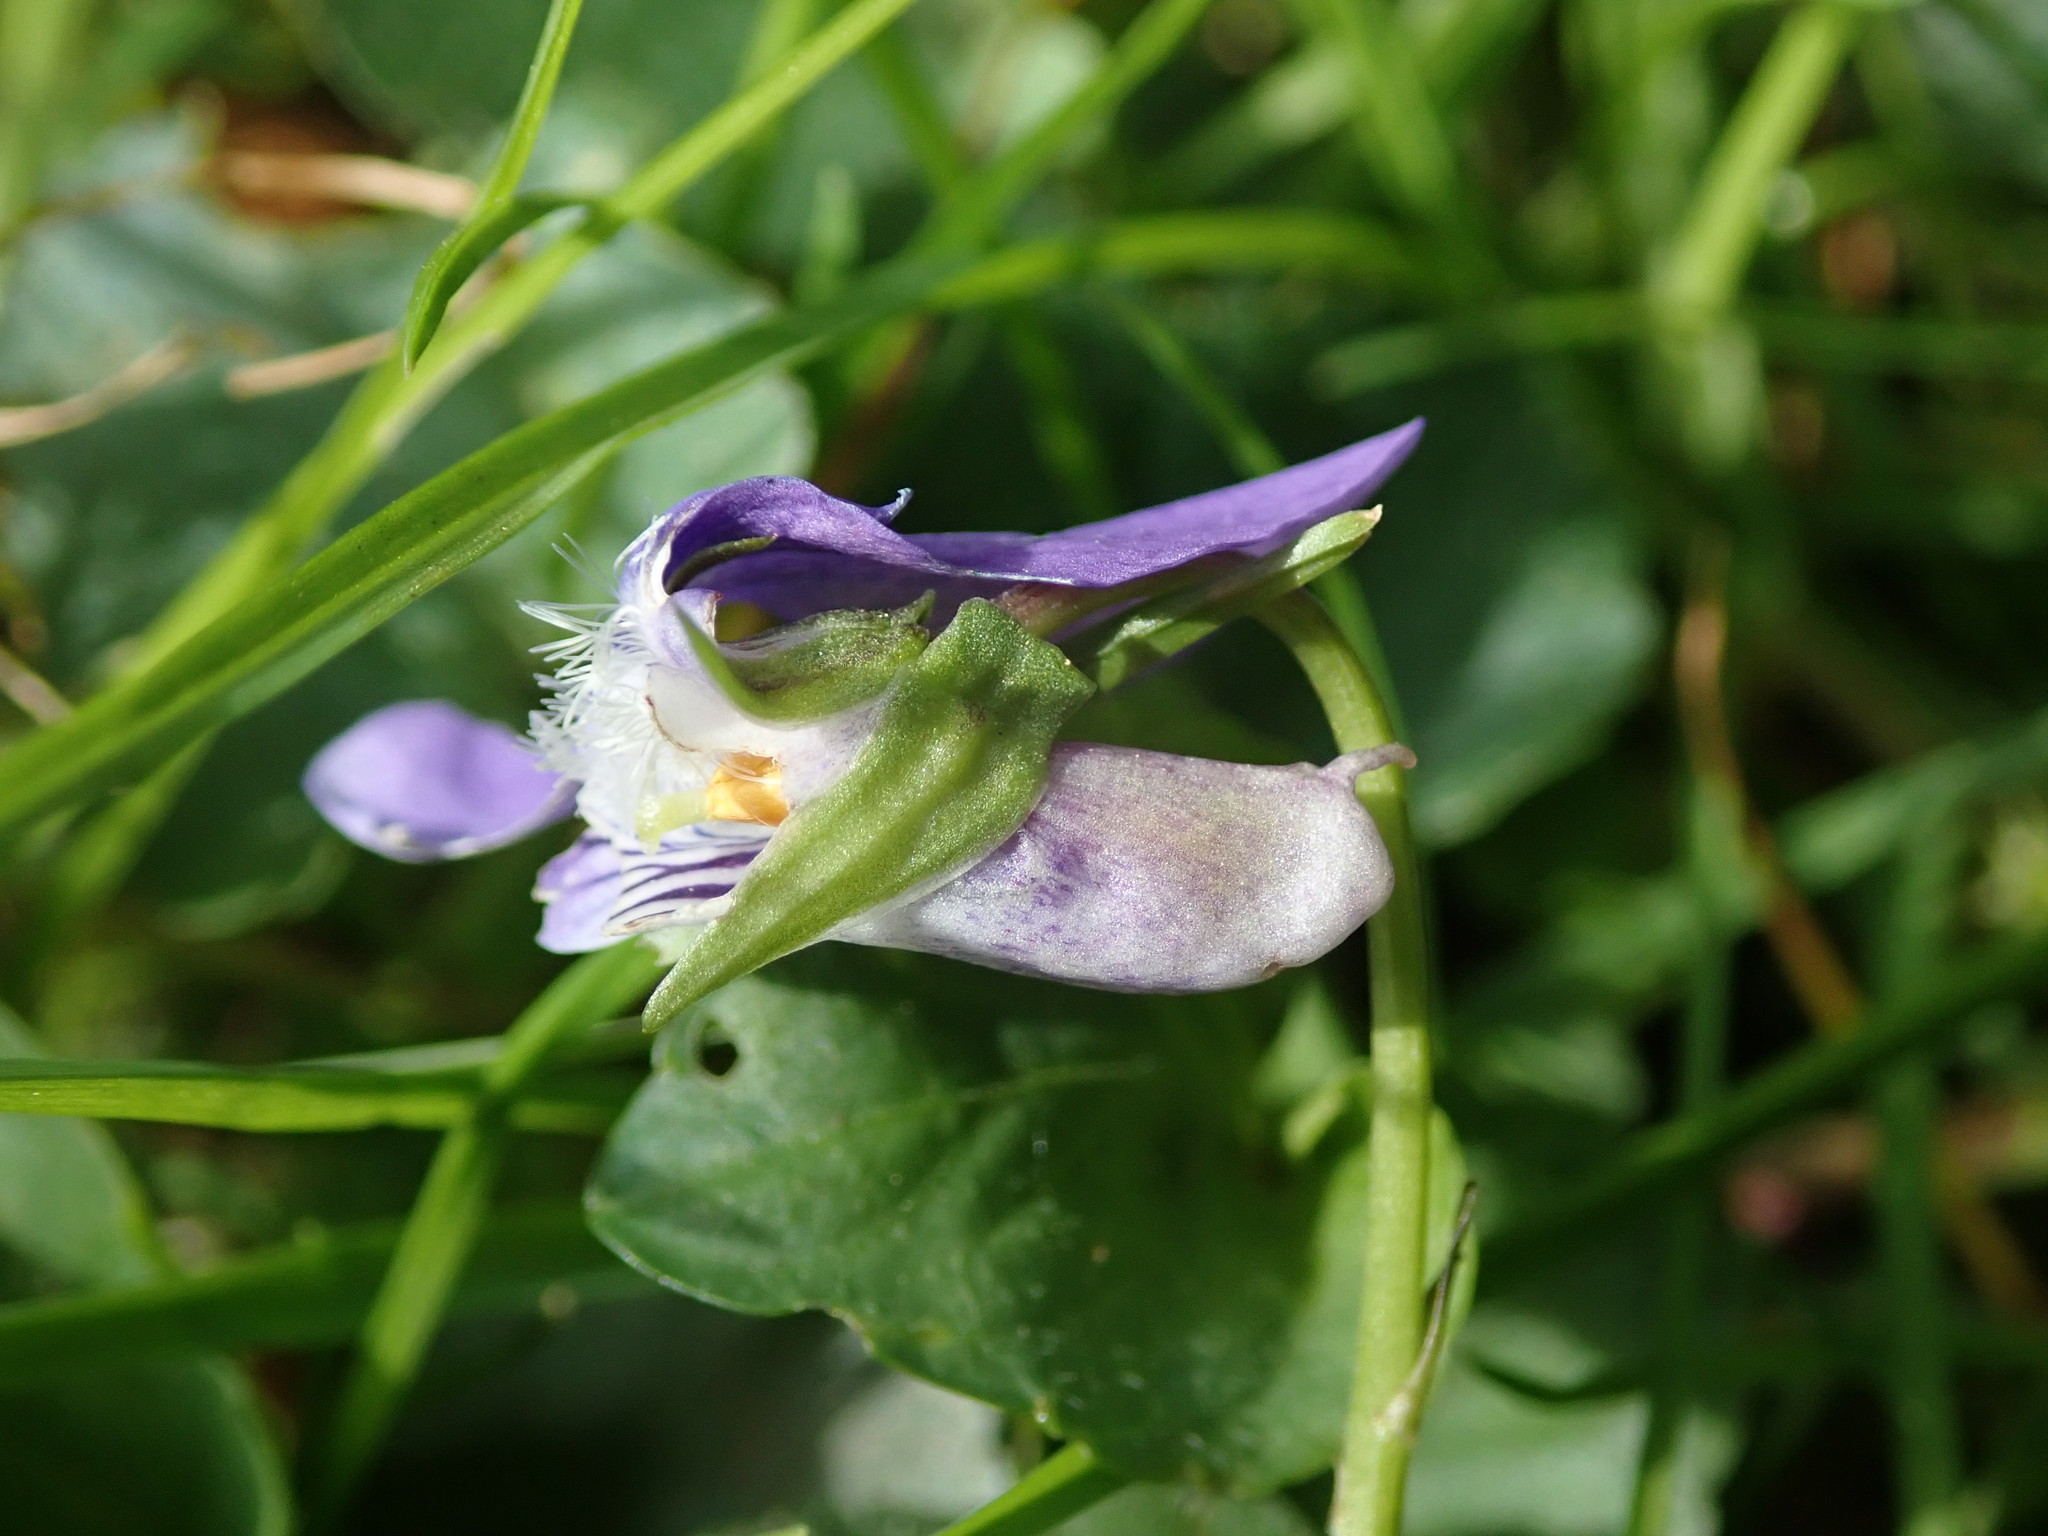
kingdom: Plantae
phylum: Tracheophyta
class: Magnoliopsida
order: Malpighiales
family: Violaceae
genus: Viola
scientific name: Viola riviniana
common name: Common dog-violet
